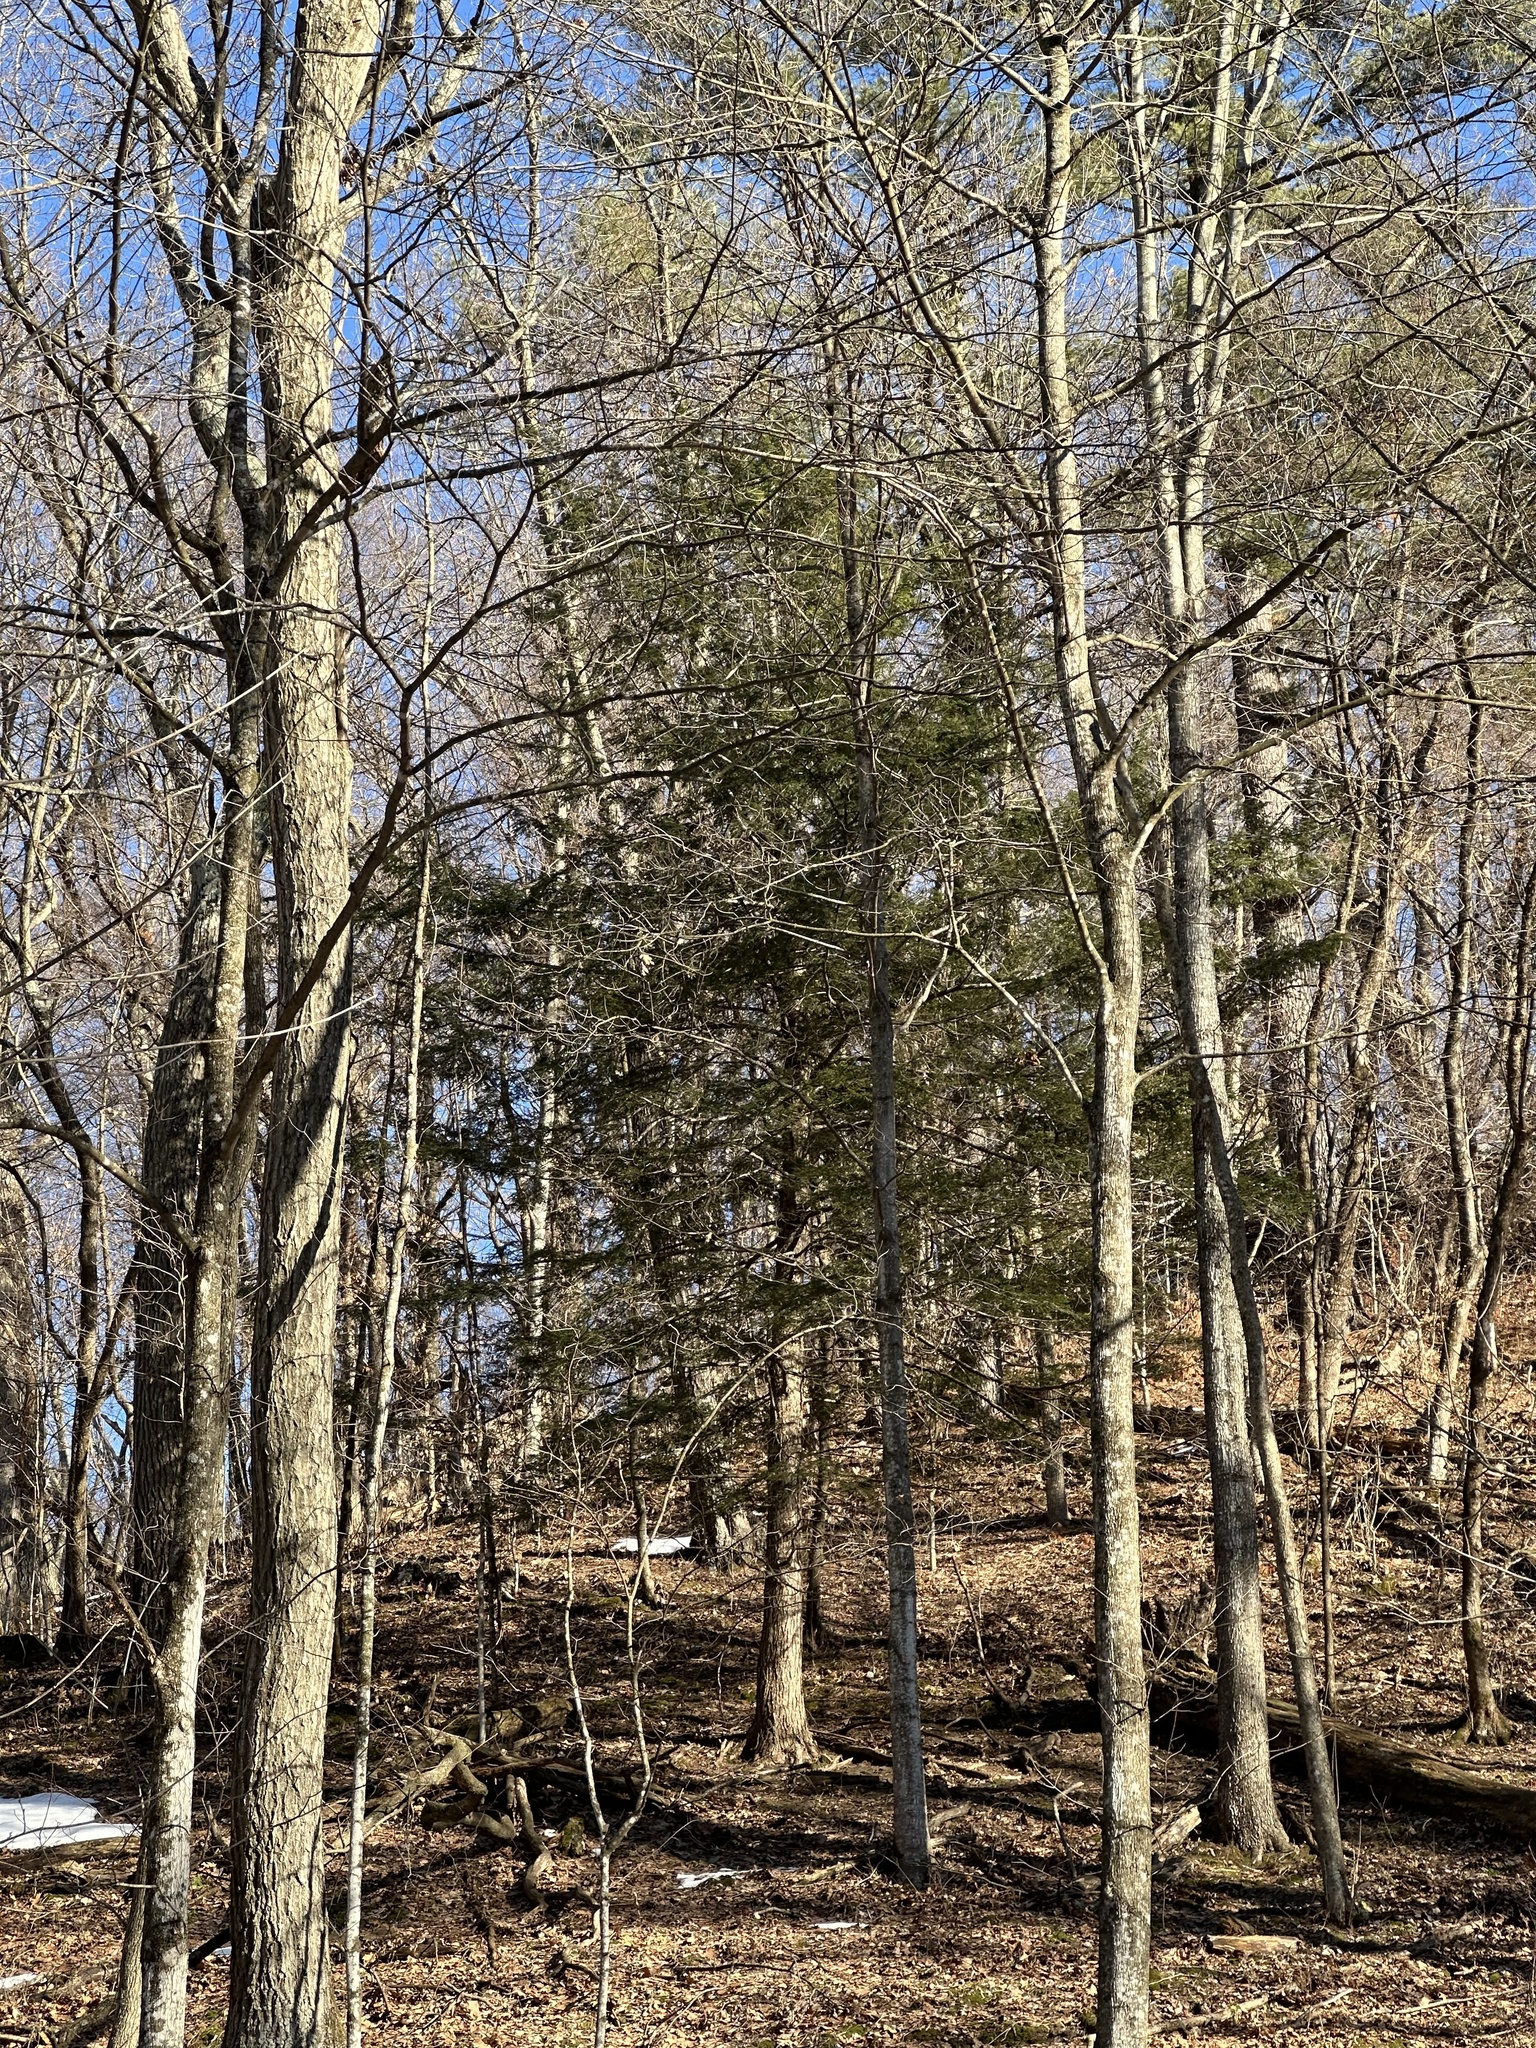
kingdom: Plantae
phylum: Tracheophyta
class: Pinopsida
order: Pinales
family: Pinaceae
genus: Tsuga
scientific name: Tsuga canadensis
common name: Eastern hemlock
